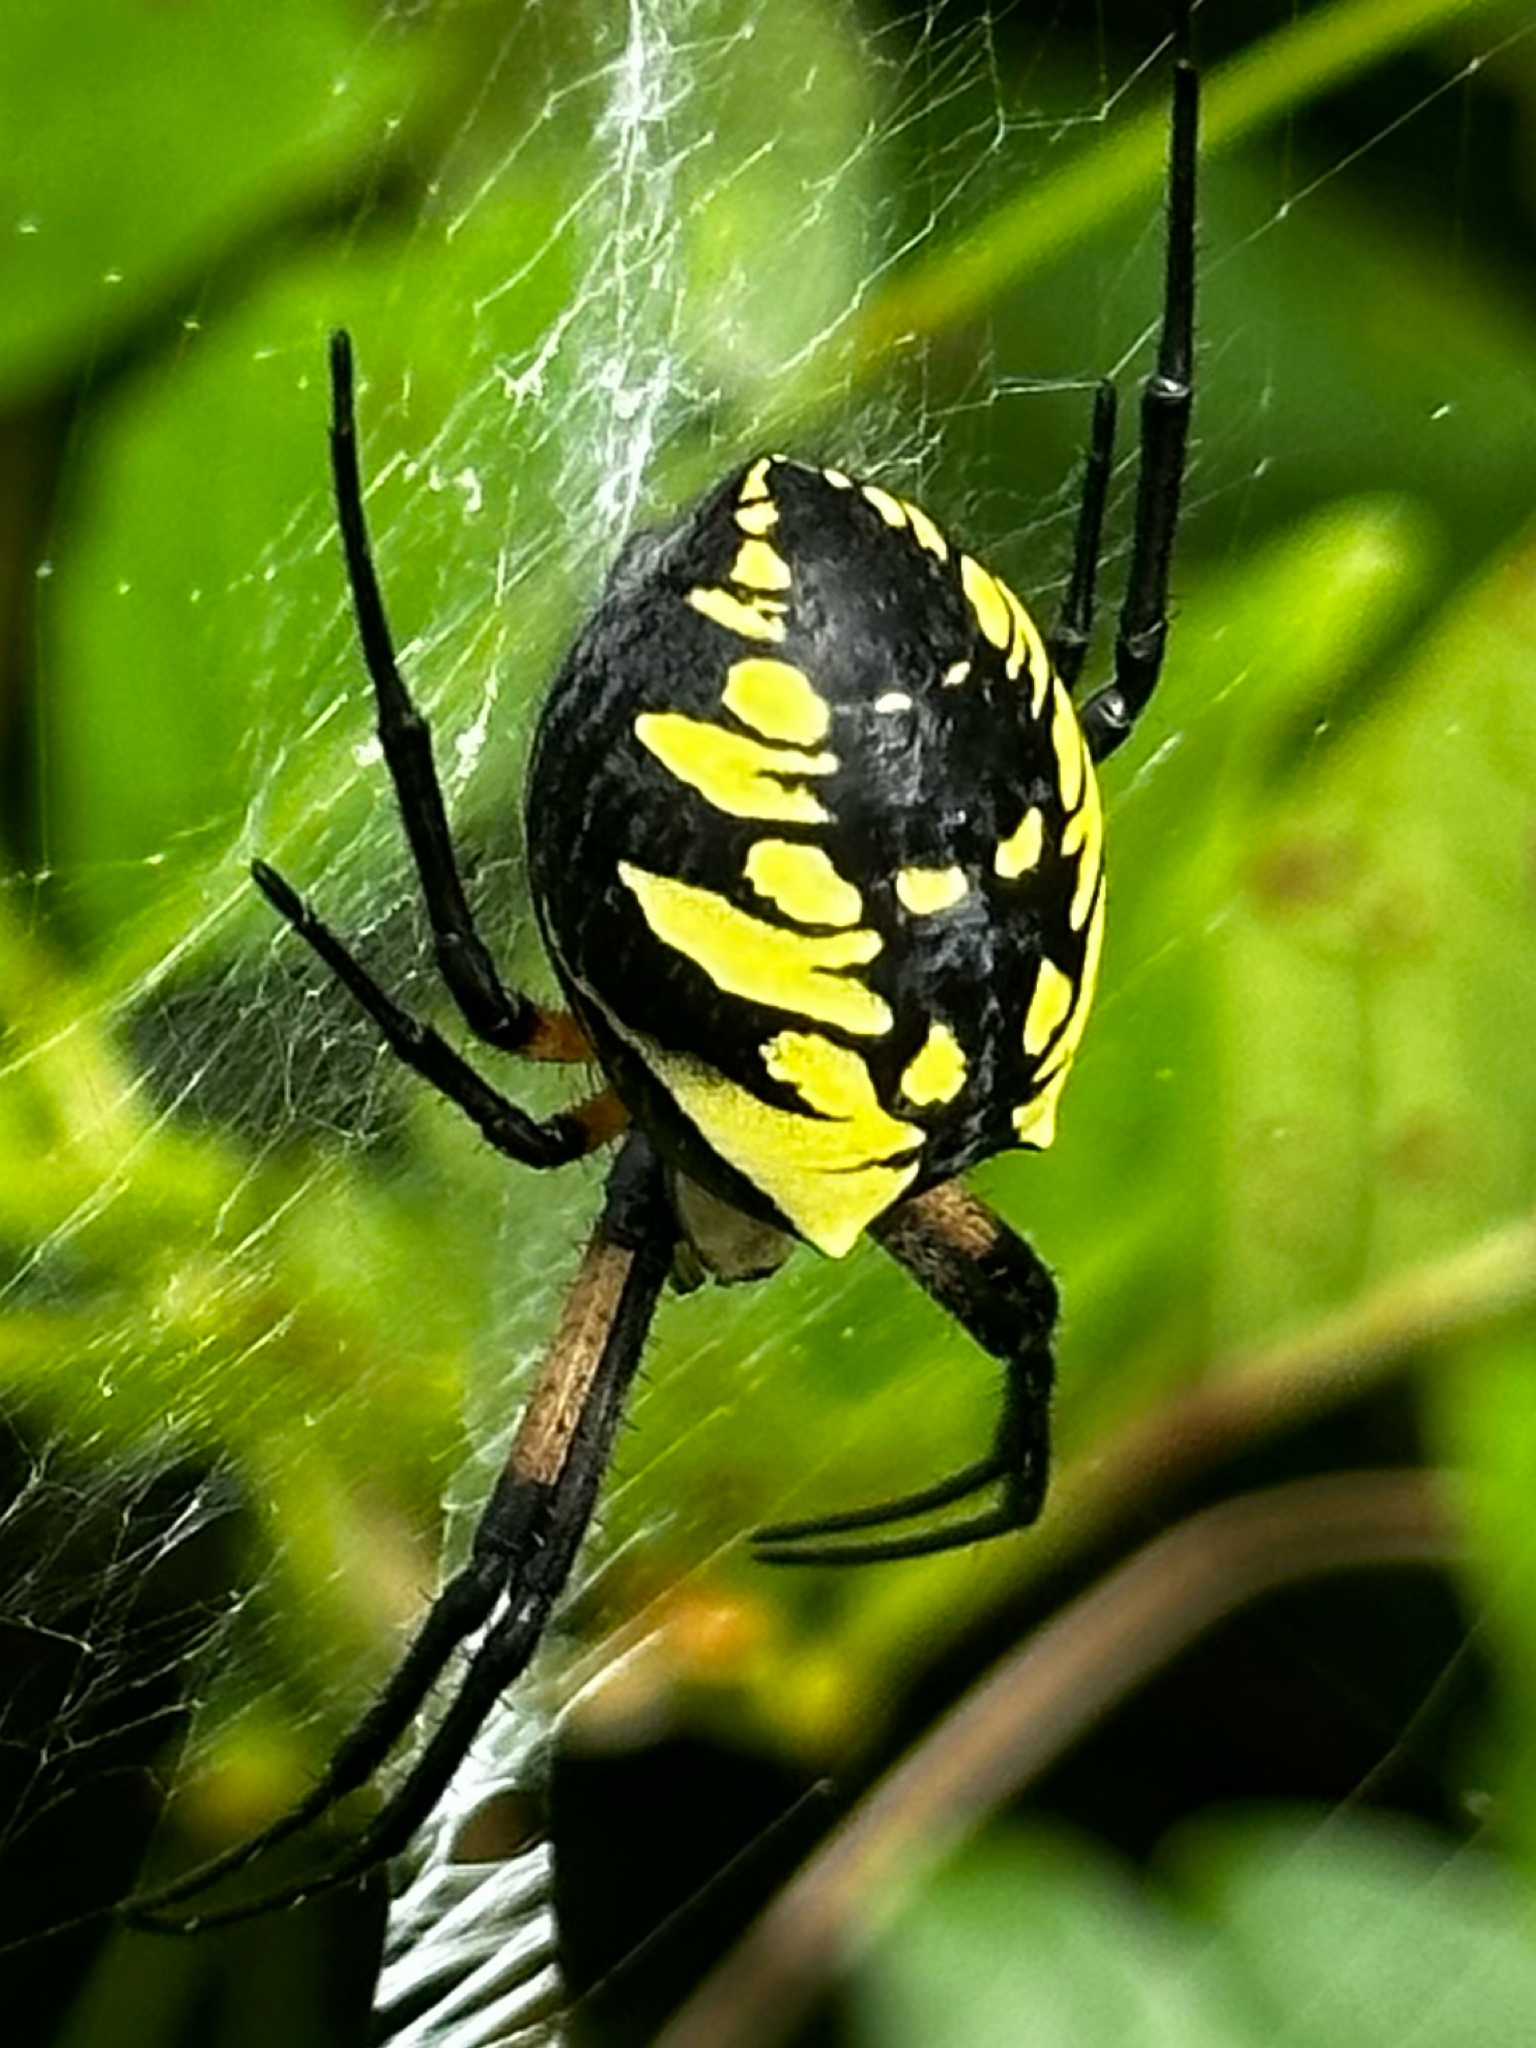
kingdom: Animalia
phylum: Arthropoda
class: Arachnida
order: Araneae
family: Araneidae
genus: Argiope
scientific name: Argiope aurantia
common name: Orb weavers
